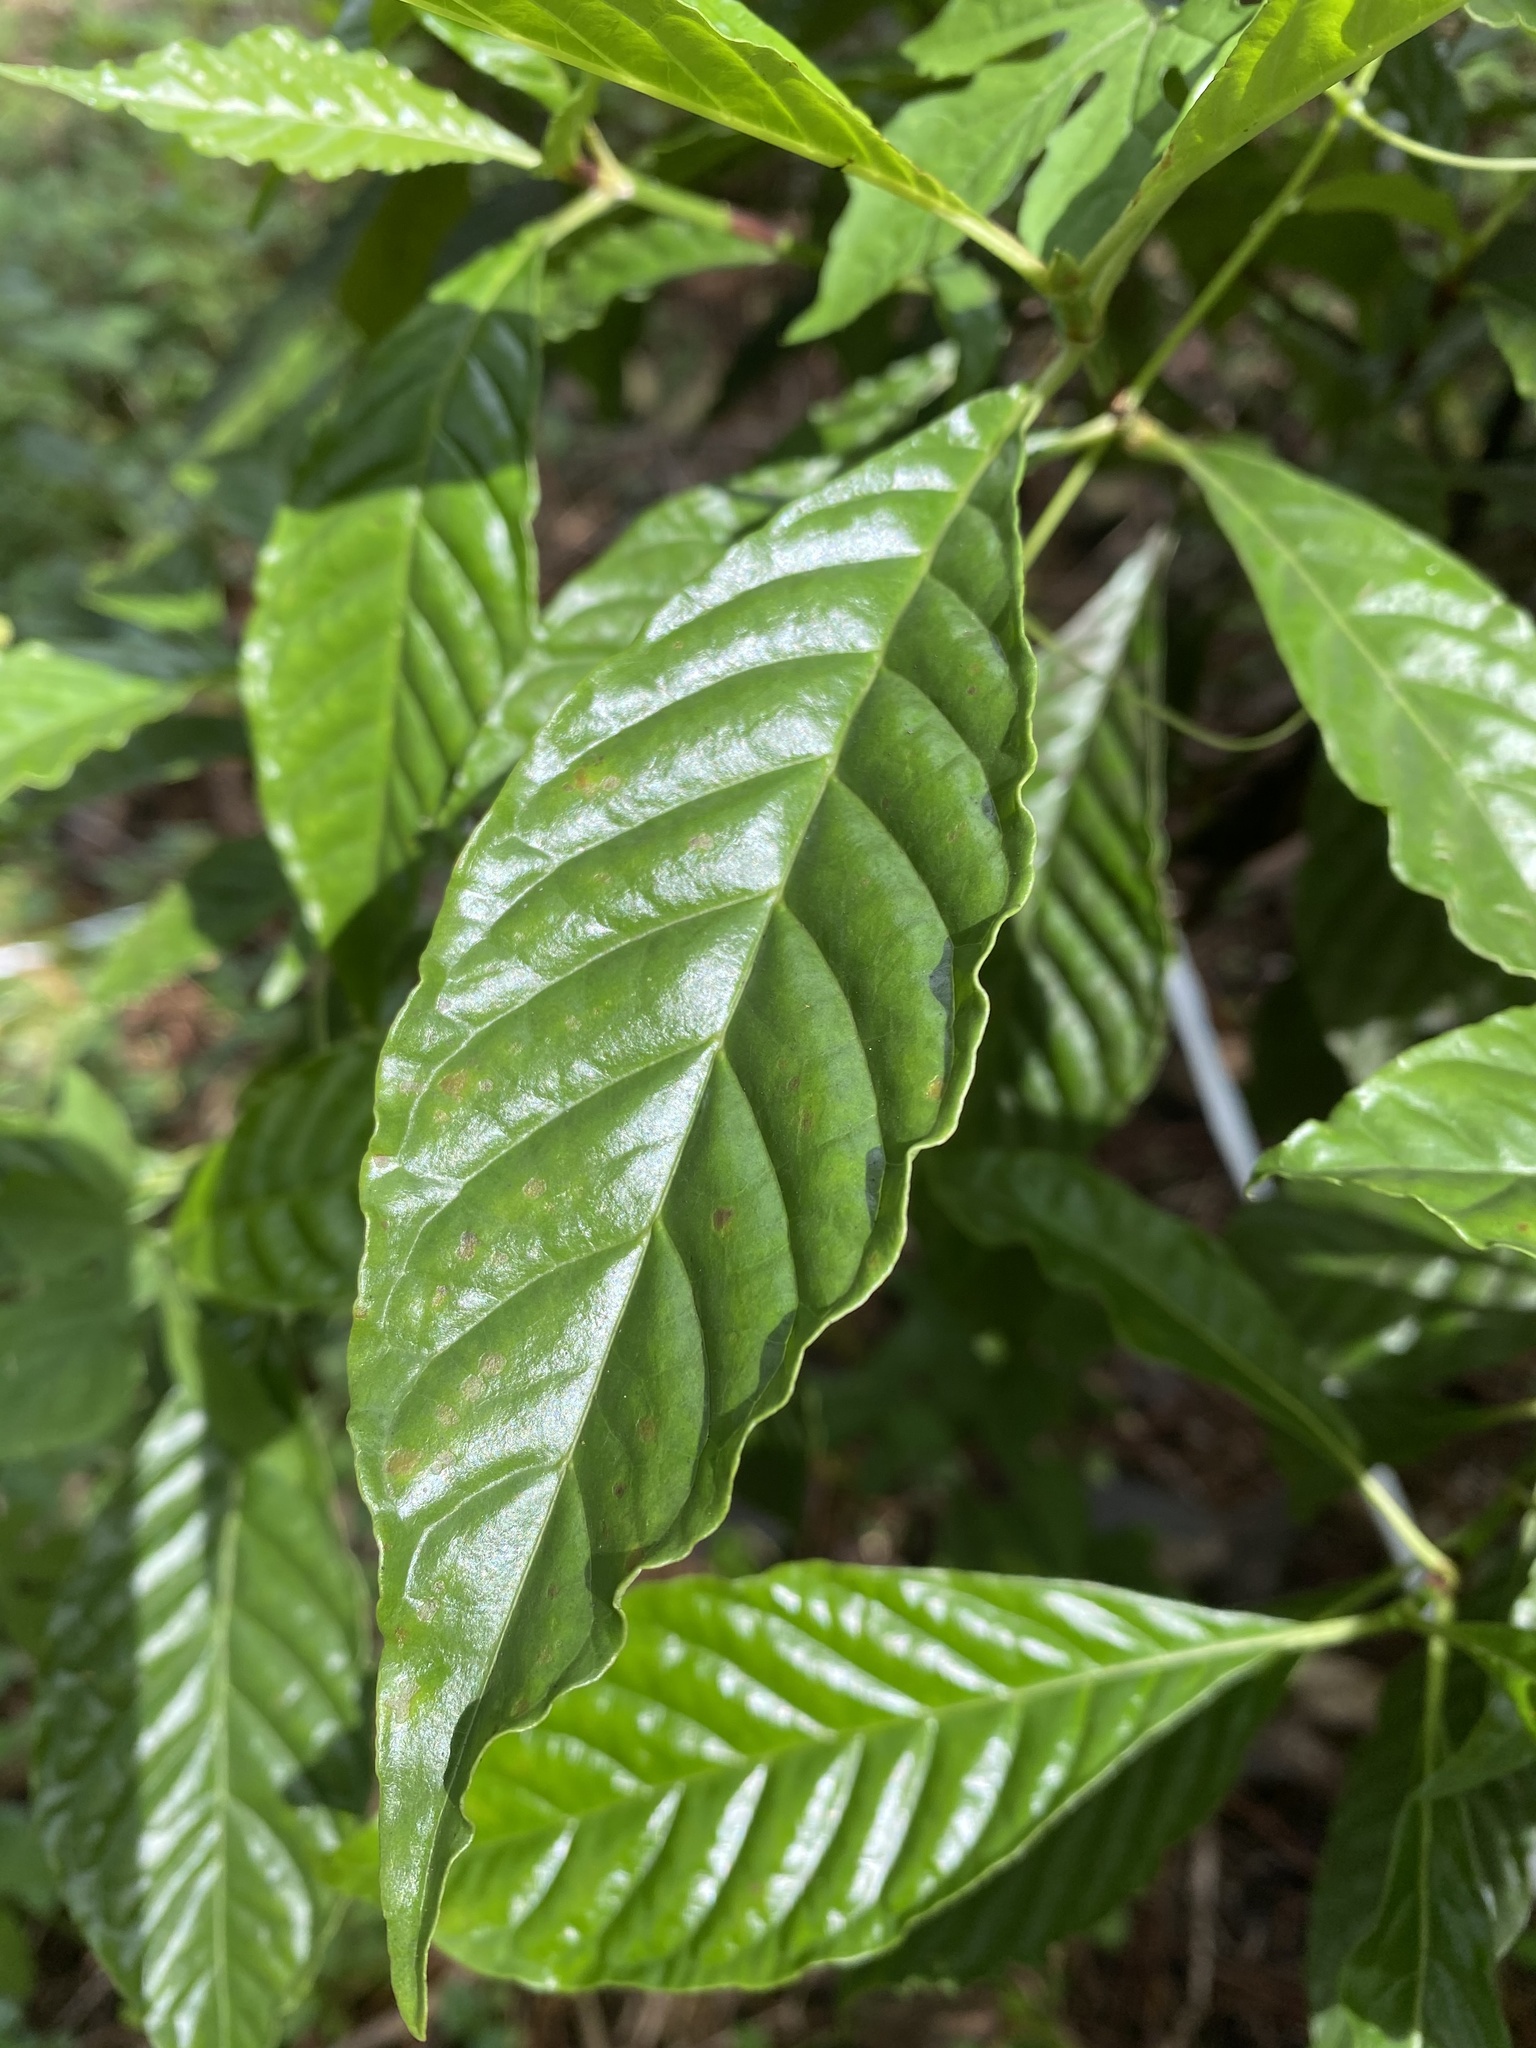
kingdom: Plantae
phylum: Tracheophyta
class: Magnoliopsida
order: Gentianales
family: Rubiaceae
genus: Psychotria
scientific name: Psychotria nervosa
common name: Bastard cankerberry
